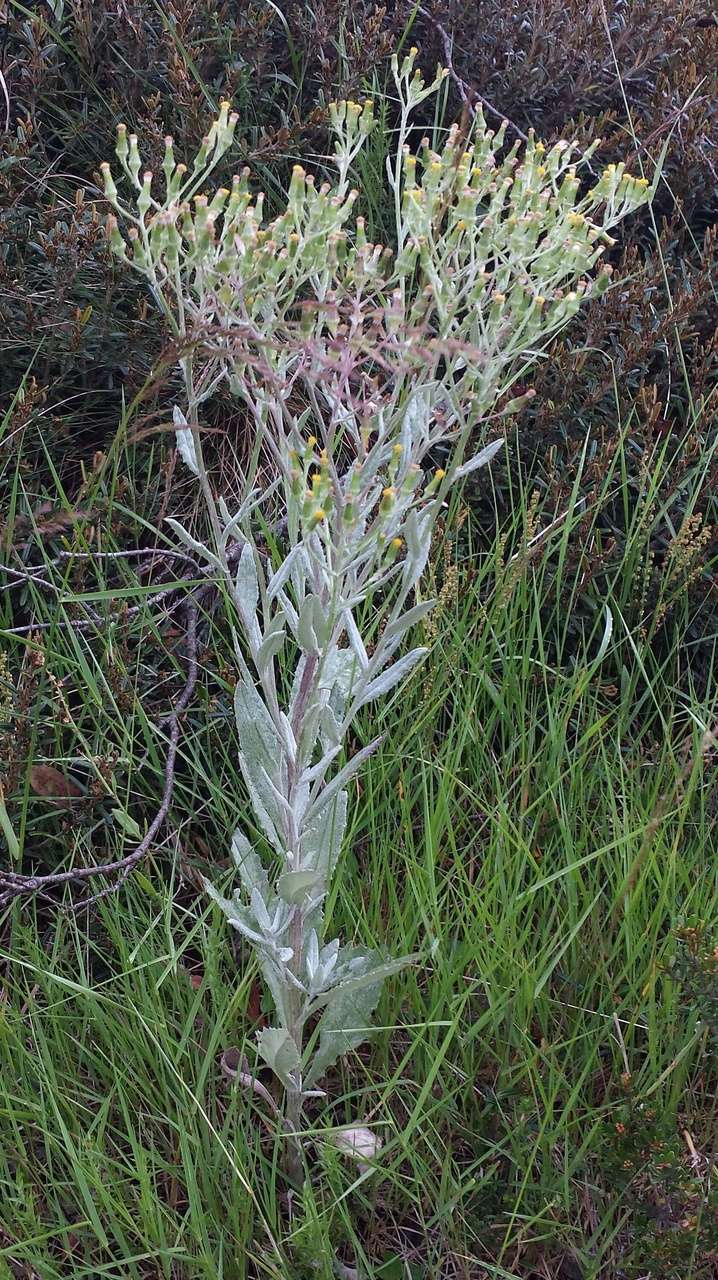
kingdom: Plantae
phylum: Tracheophyta
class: Magnoliopsida
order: Asterales
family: Asteraceae
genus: Senecio
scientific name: Senecio gunnii
